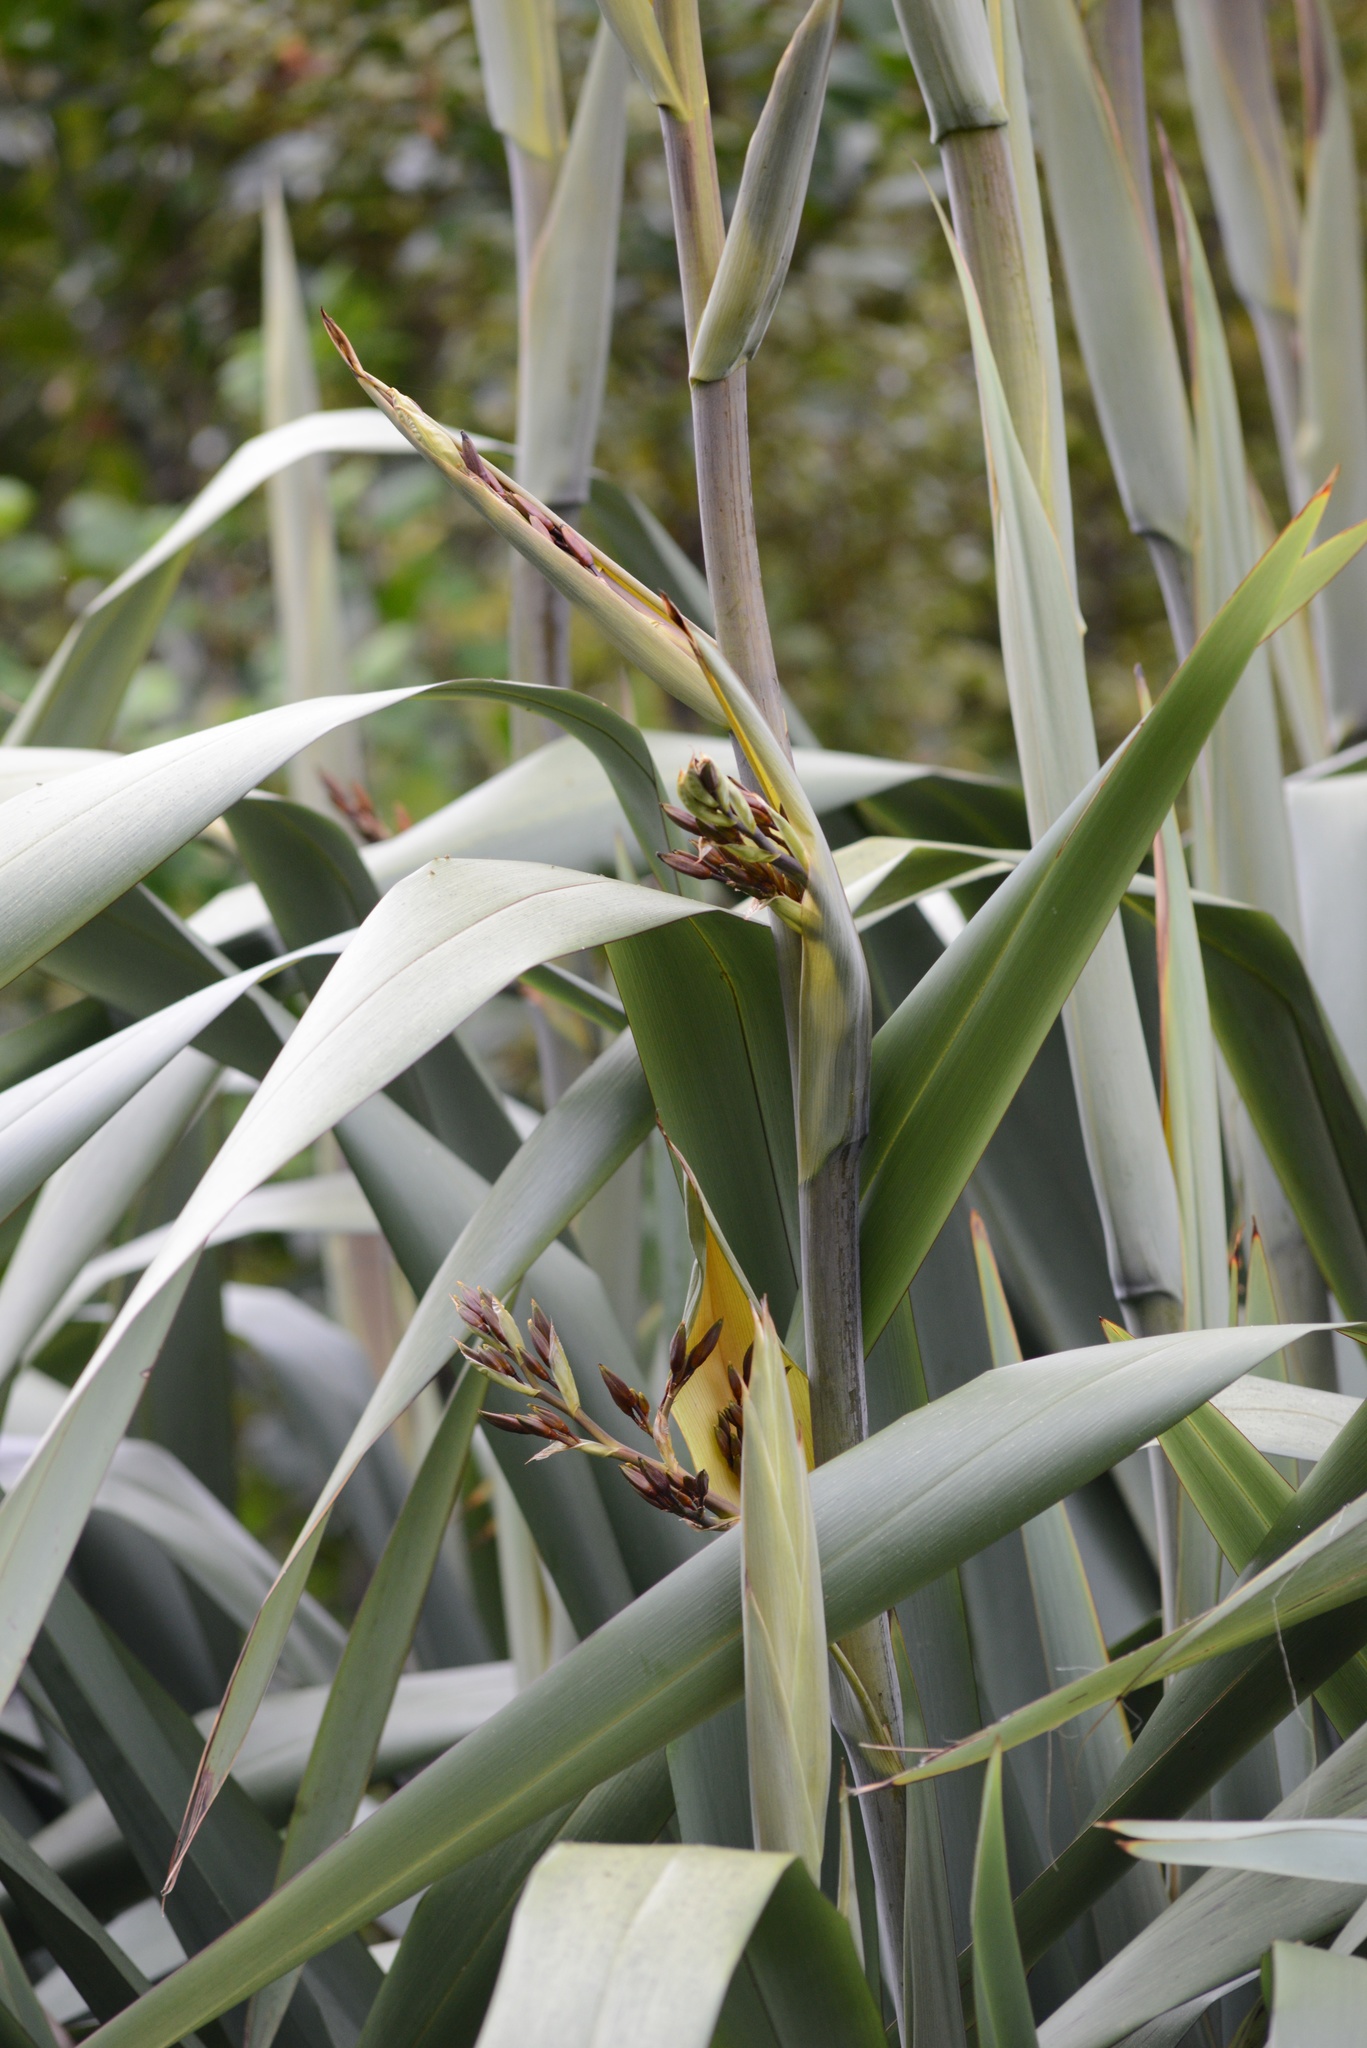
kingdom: Plantae
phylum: Tracheophyta
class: Liliopsida
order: Asparagales
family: Asphodelaceae
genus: Phormium
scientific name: Phormium tenax
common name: New zealand flax
